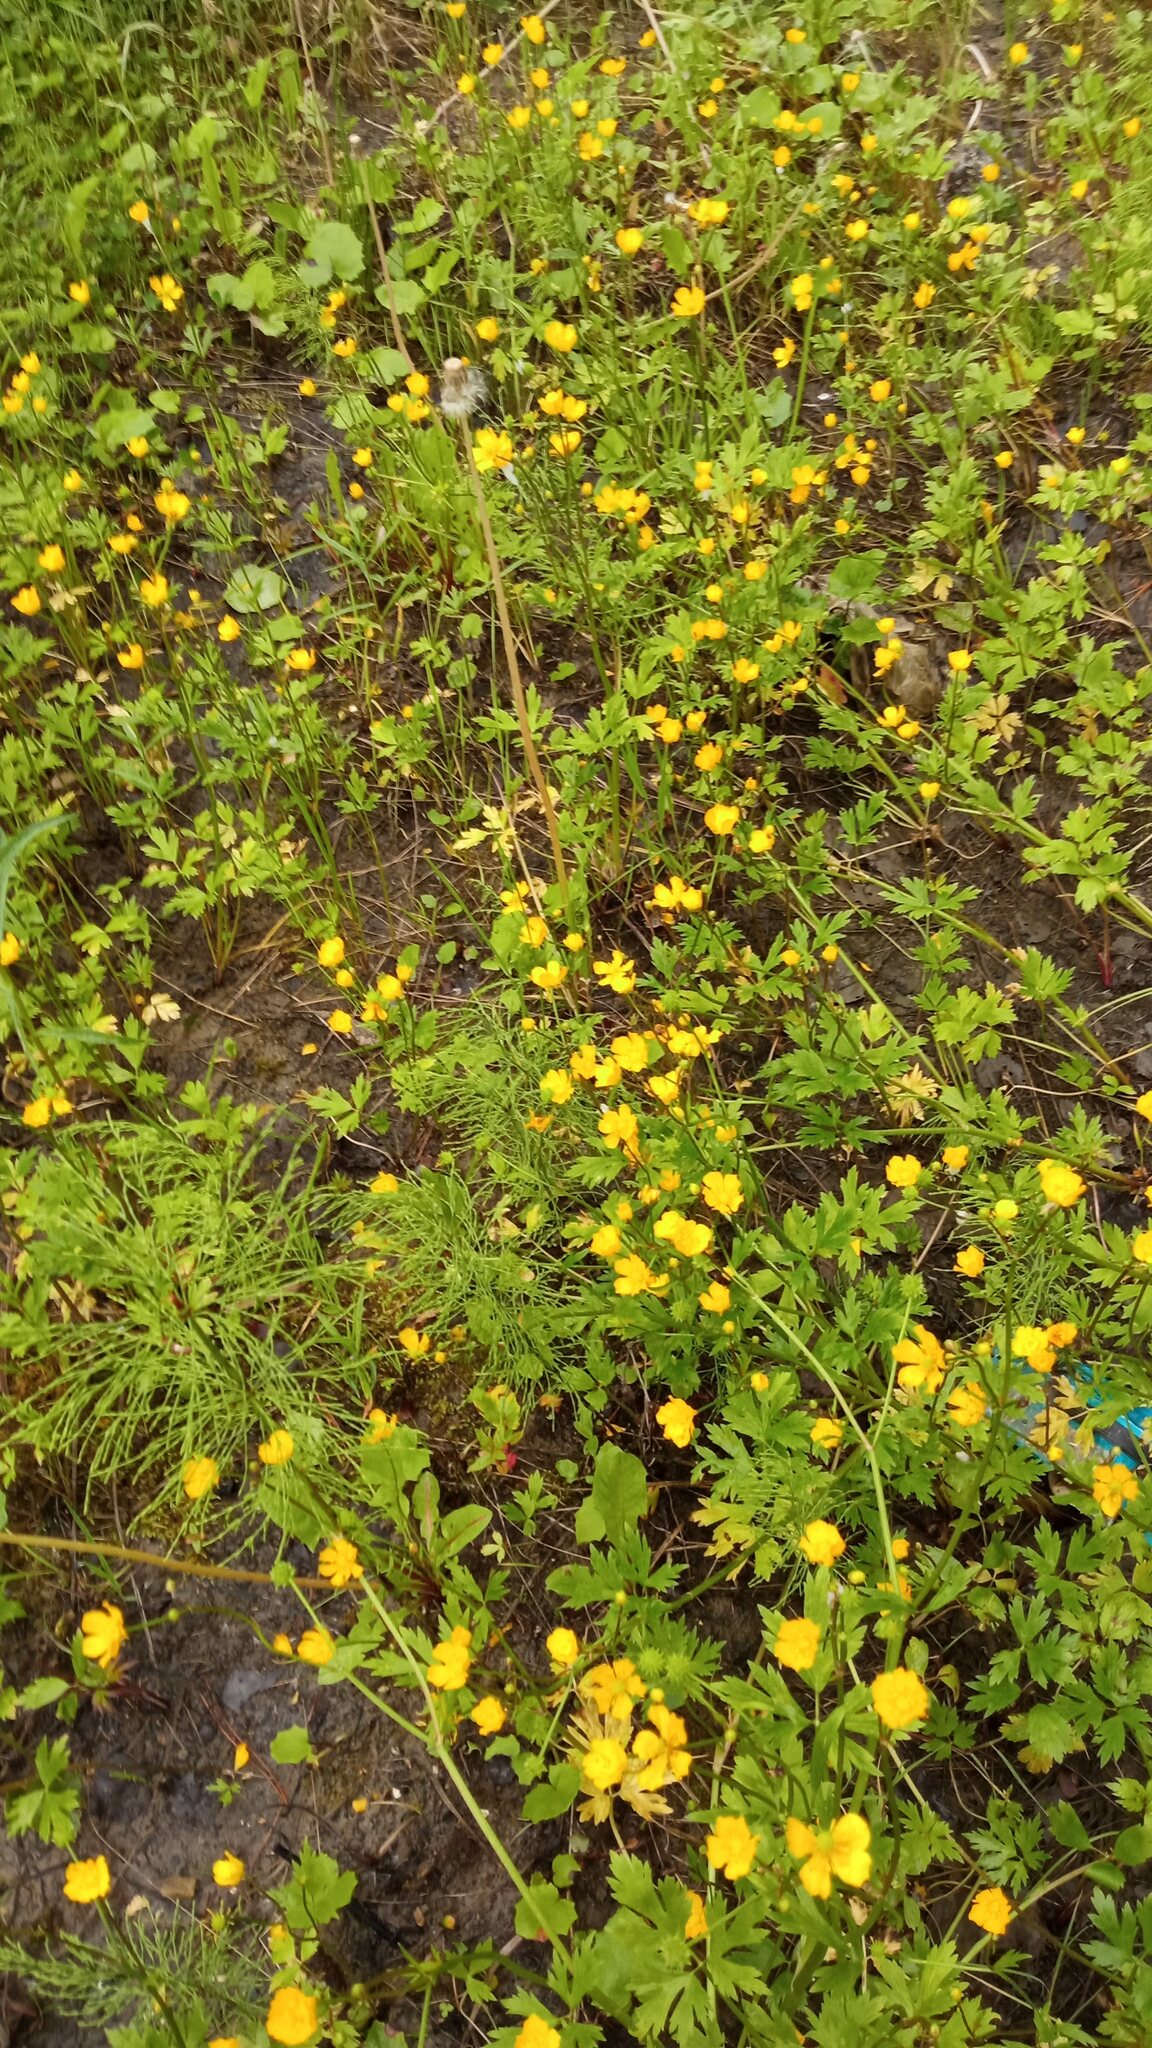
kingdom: Plantae
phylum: Tracheophyta
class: Magnoliopsida
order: Ranunculales
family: Ranunculaceae
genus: Ranunculus
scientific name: Ranunculus repens
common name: Creeping buttercup
